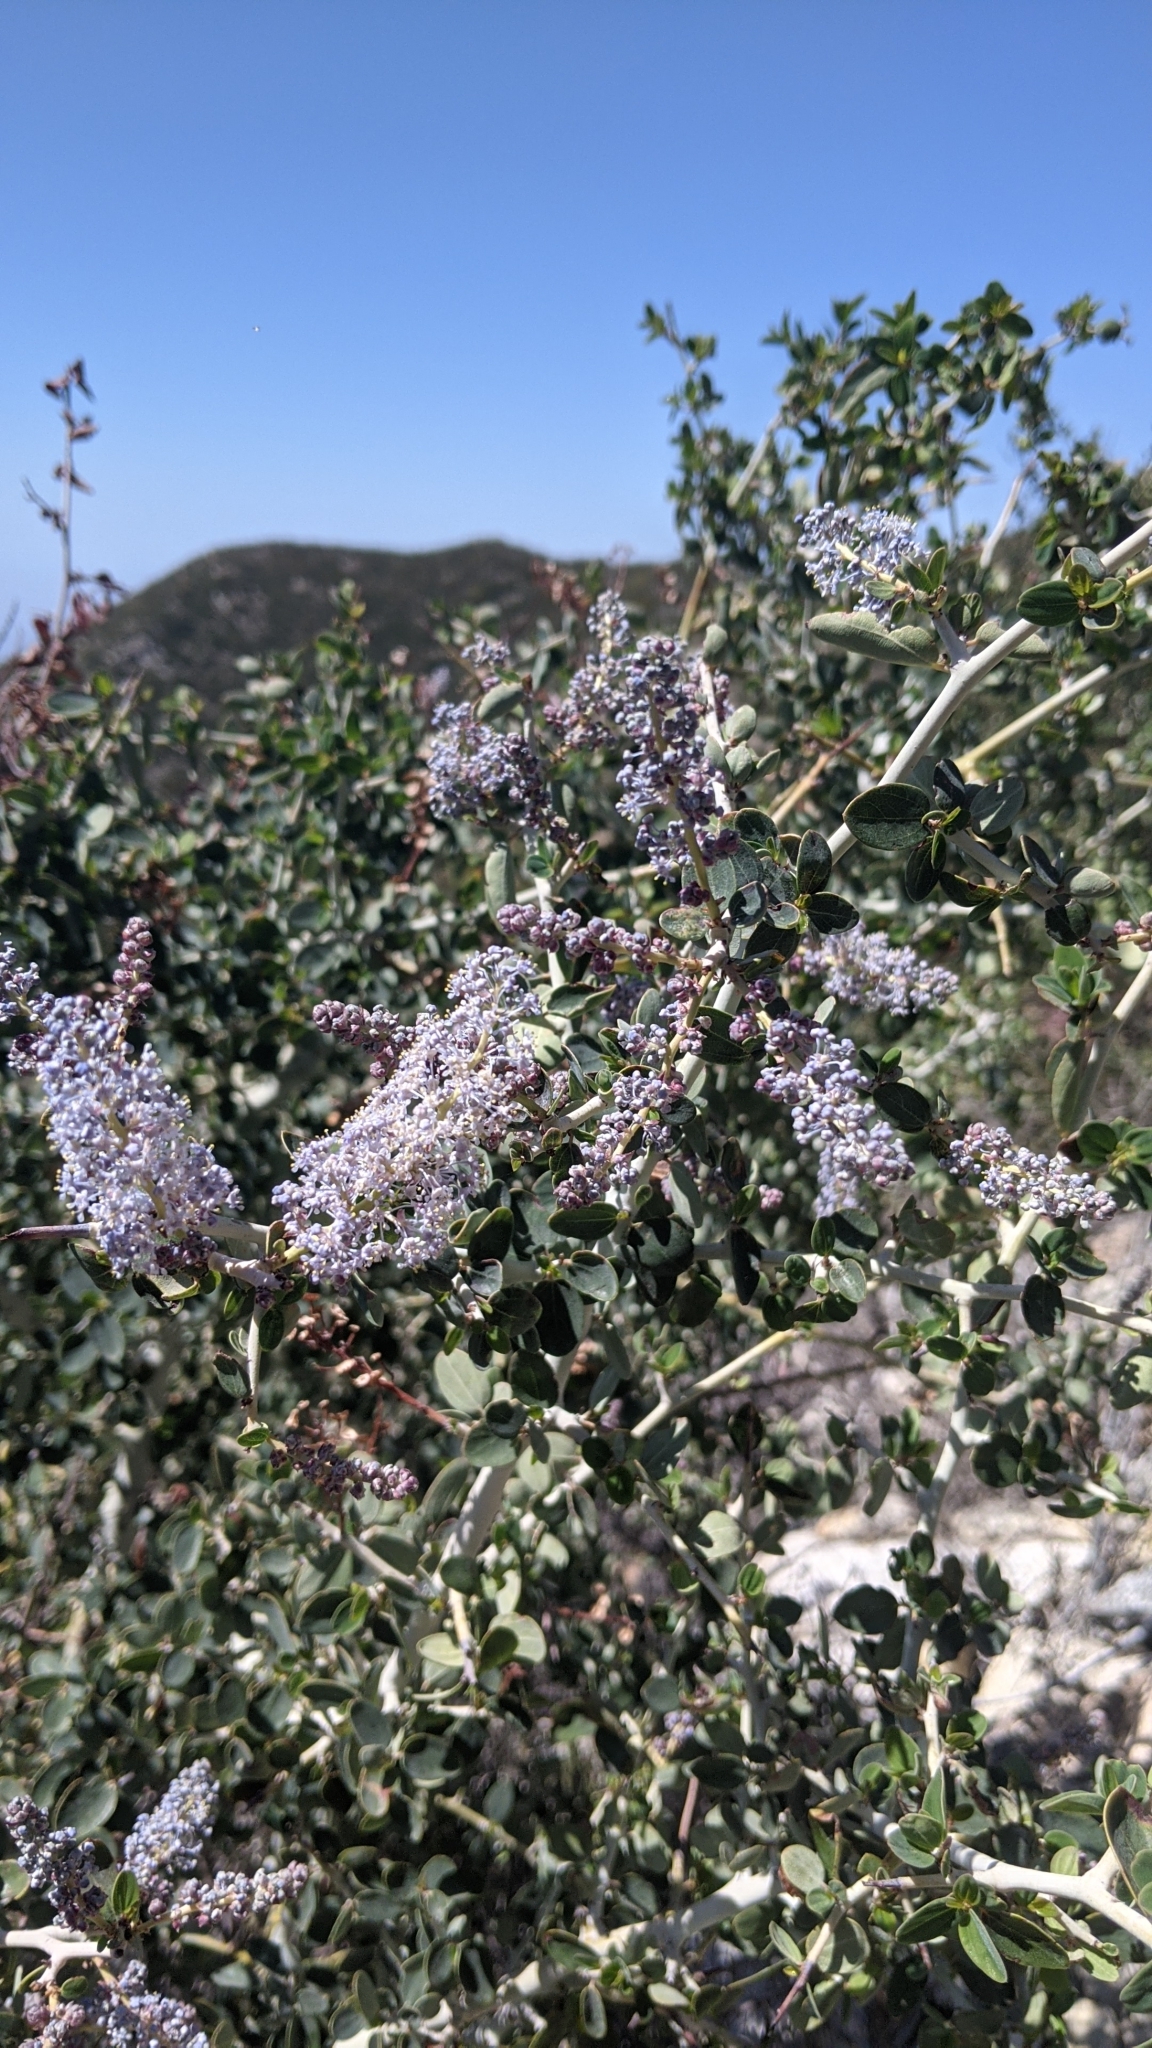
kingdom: Plantae
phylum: Tracheophyta
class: Magnoliopsida
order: Rosales
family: Rhamnaceae
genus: Ceanothus
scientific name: Ceanothus leucodermis
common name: Chaparral whitethorn
